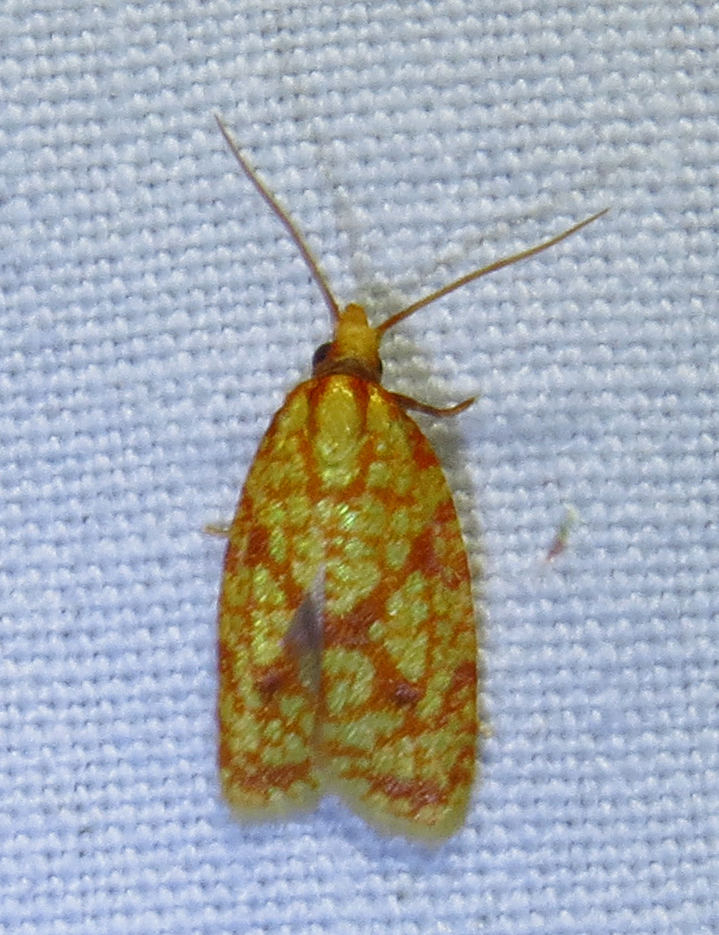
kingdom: Animalia
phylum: Arthropoda
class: Insecta
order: Lepidoptera
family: Tortricidae
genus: Sparganothis
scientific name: Sparganothis sulfureana
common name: Sparganothis fruitworm moth
